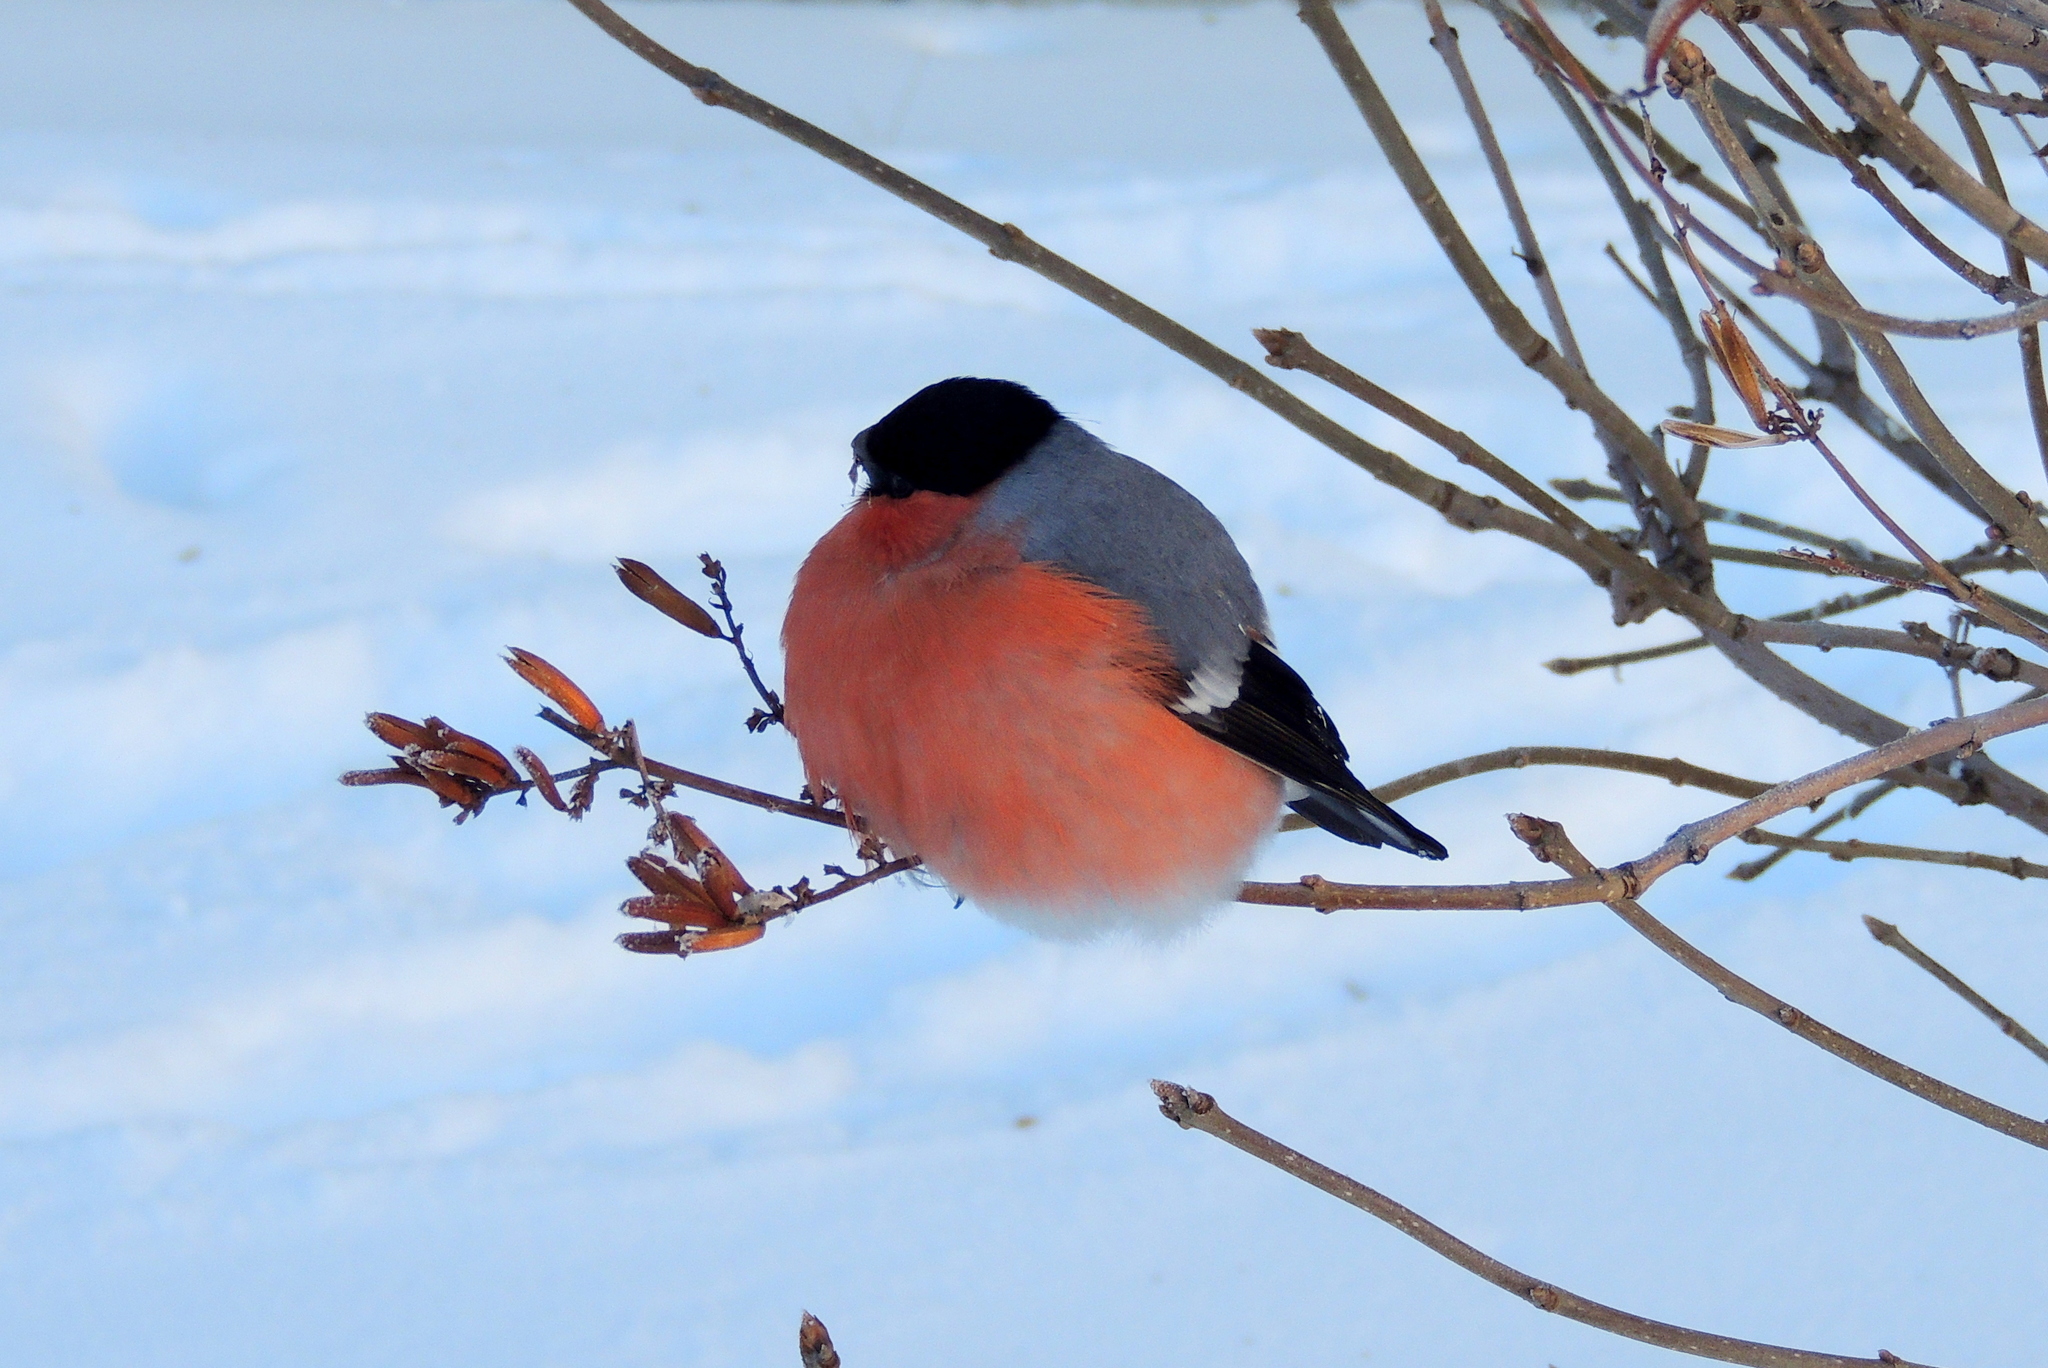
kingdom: Animalia
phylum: Chordata
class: Aves
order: Passeriformes
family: Fringillidae
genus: Pyrrhula
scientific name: Pyrrhula pyrrhula
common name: Eurasian bullfinch
